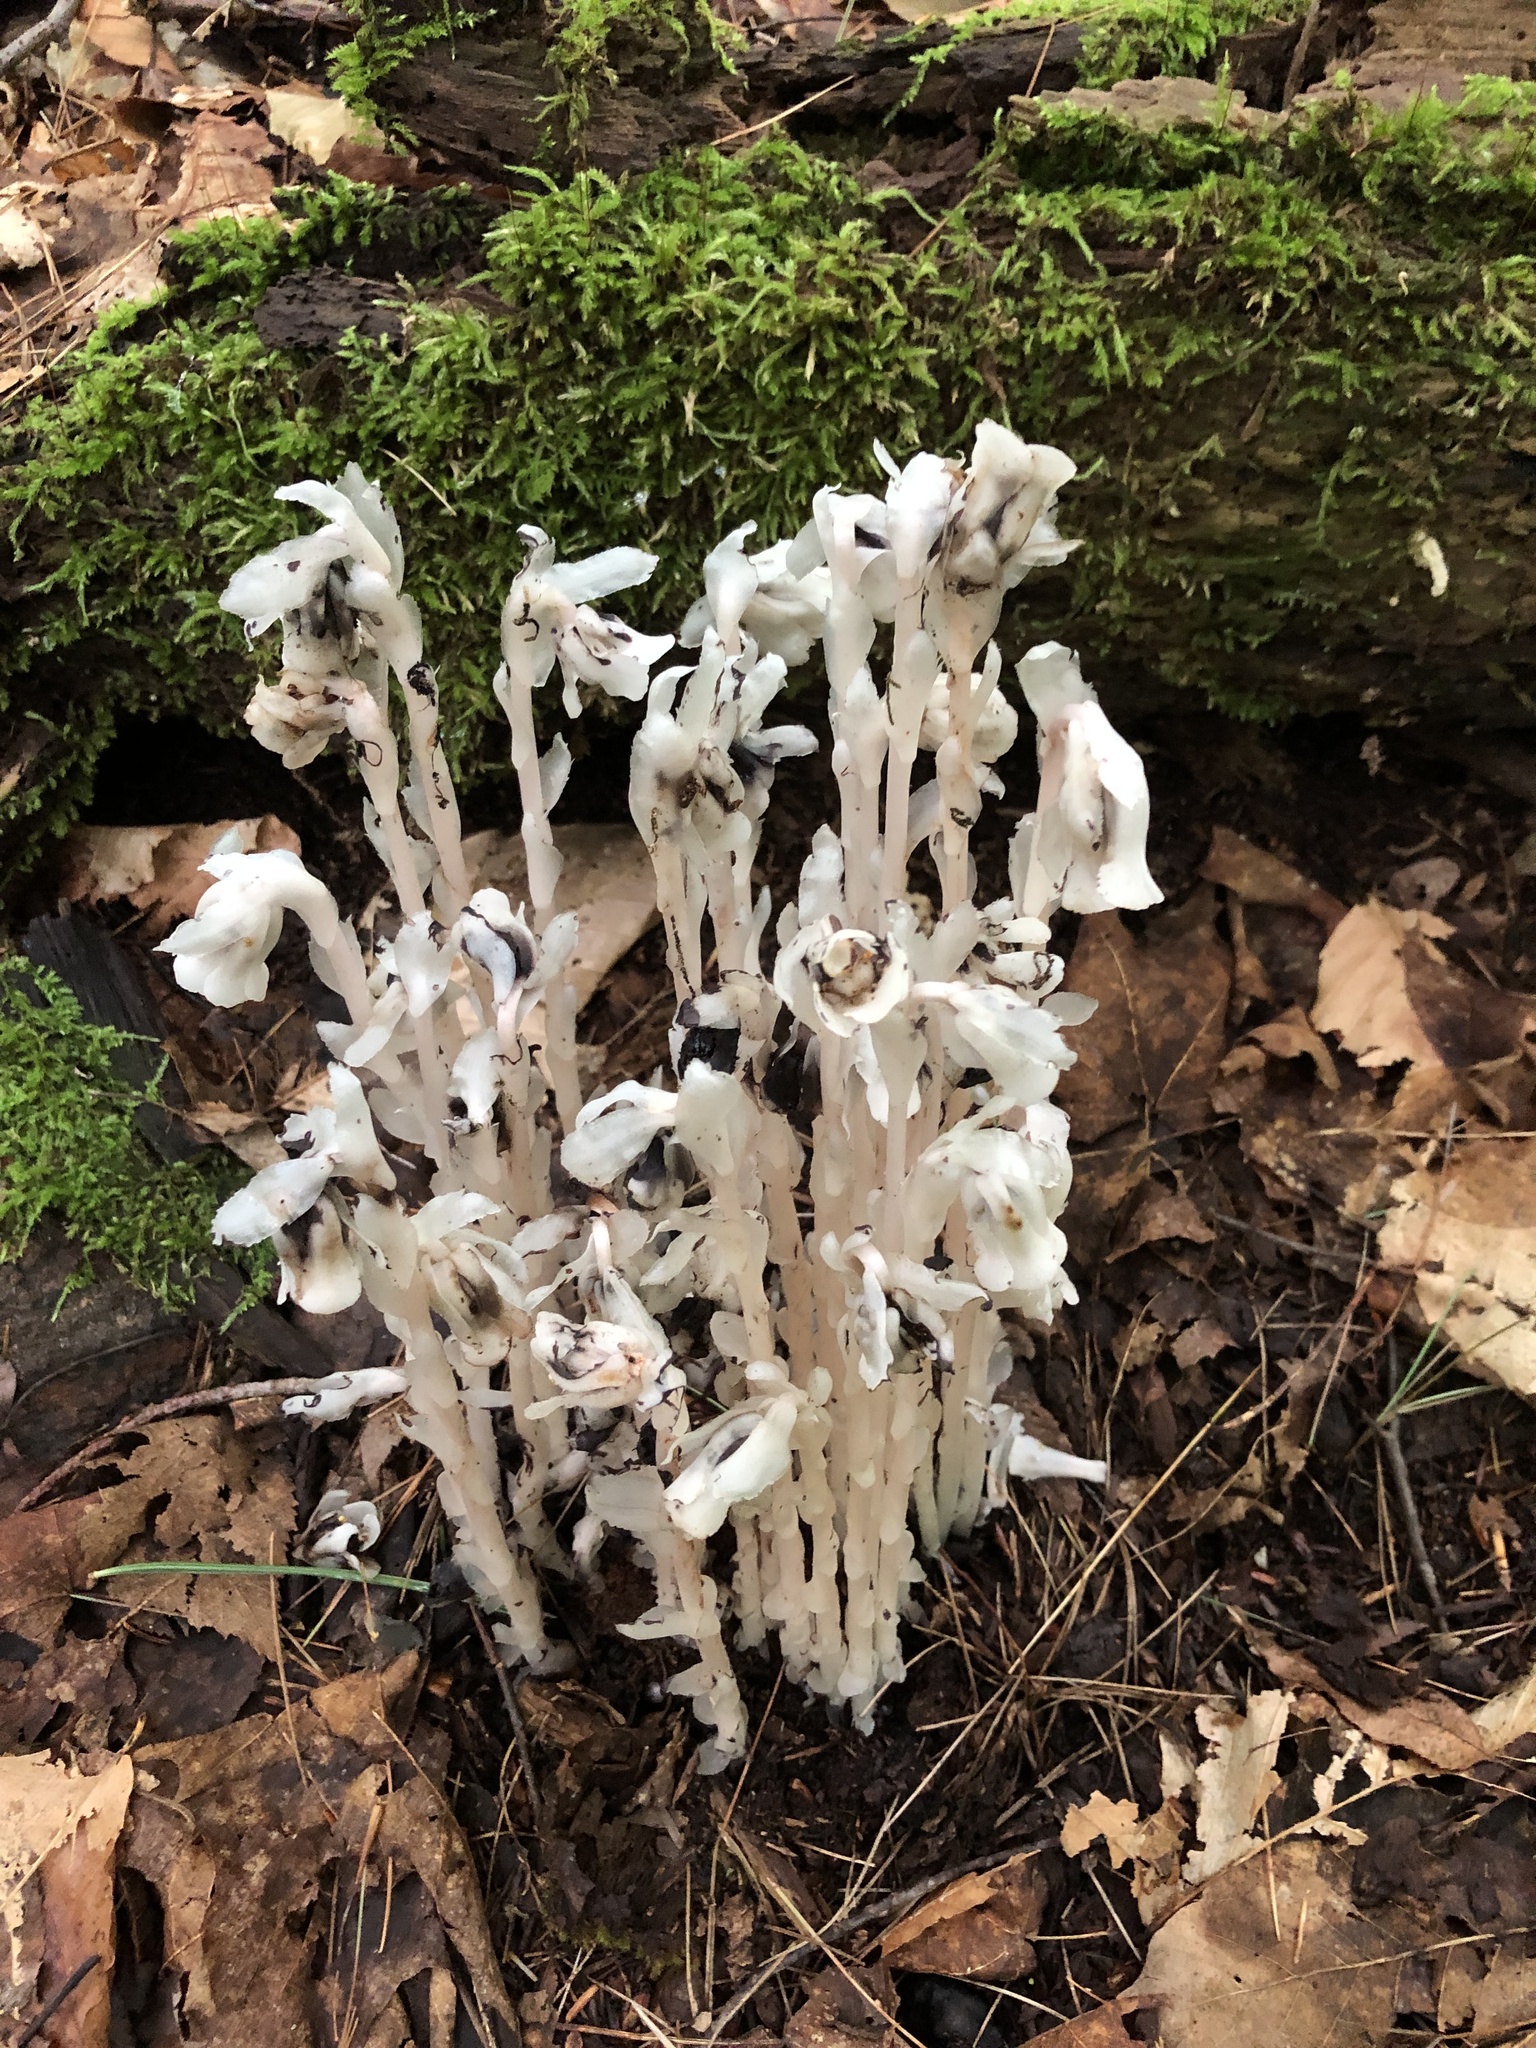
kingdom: Plantae
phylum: Tracheophyta
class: Magnoliopsida
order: Ericales
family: Ericaceae
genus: Monotropa
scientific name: Monotropa uniflora
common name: Convulsion root
